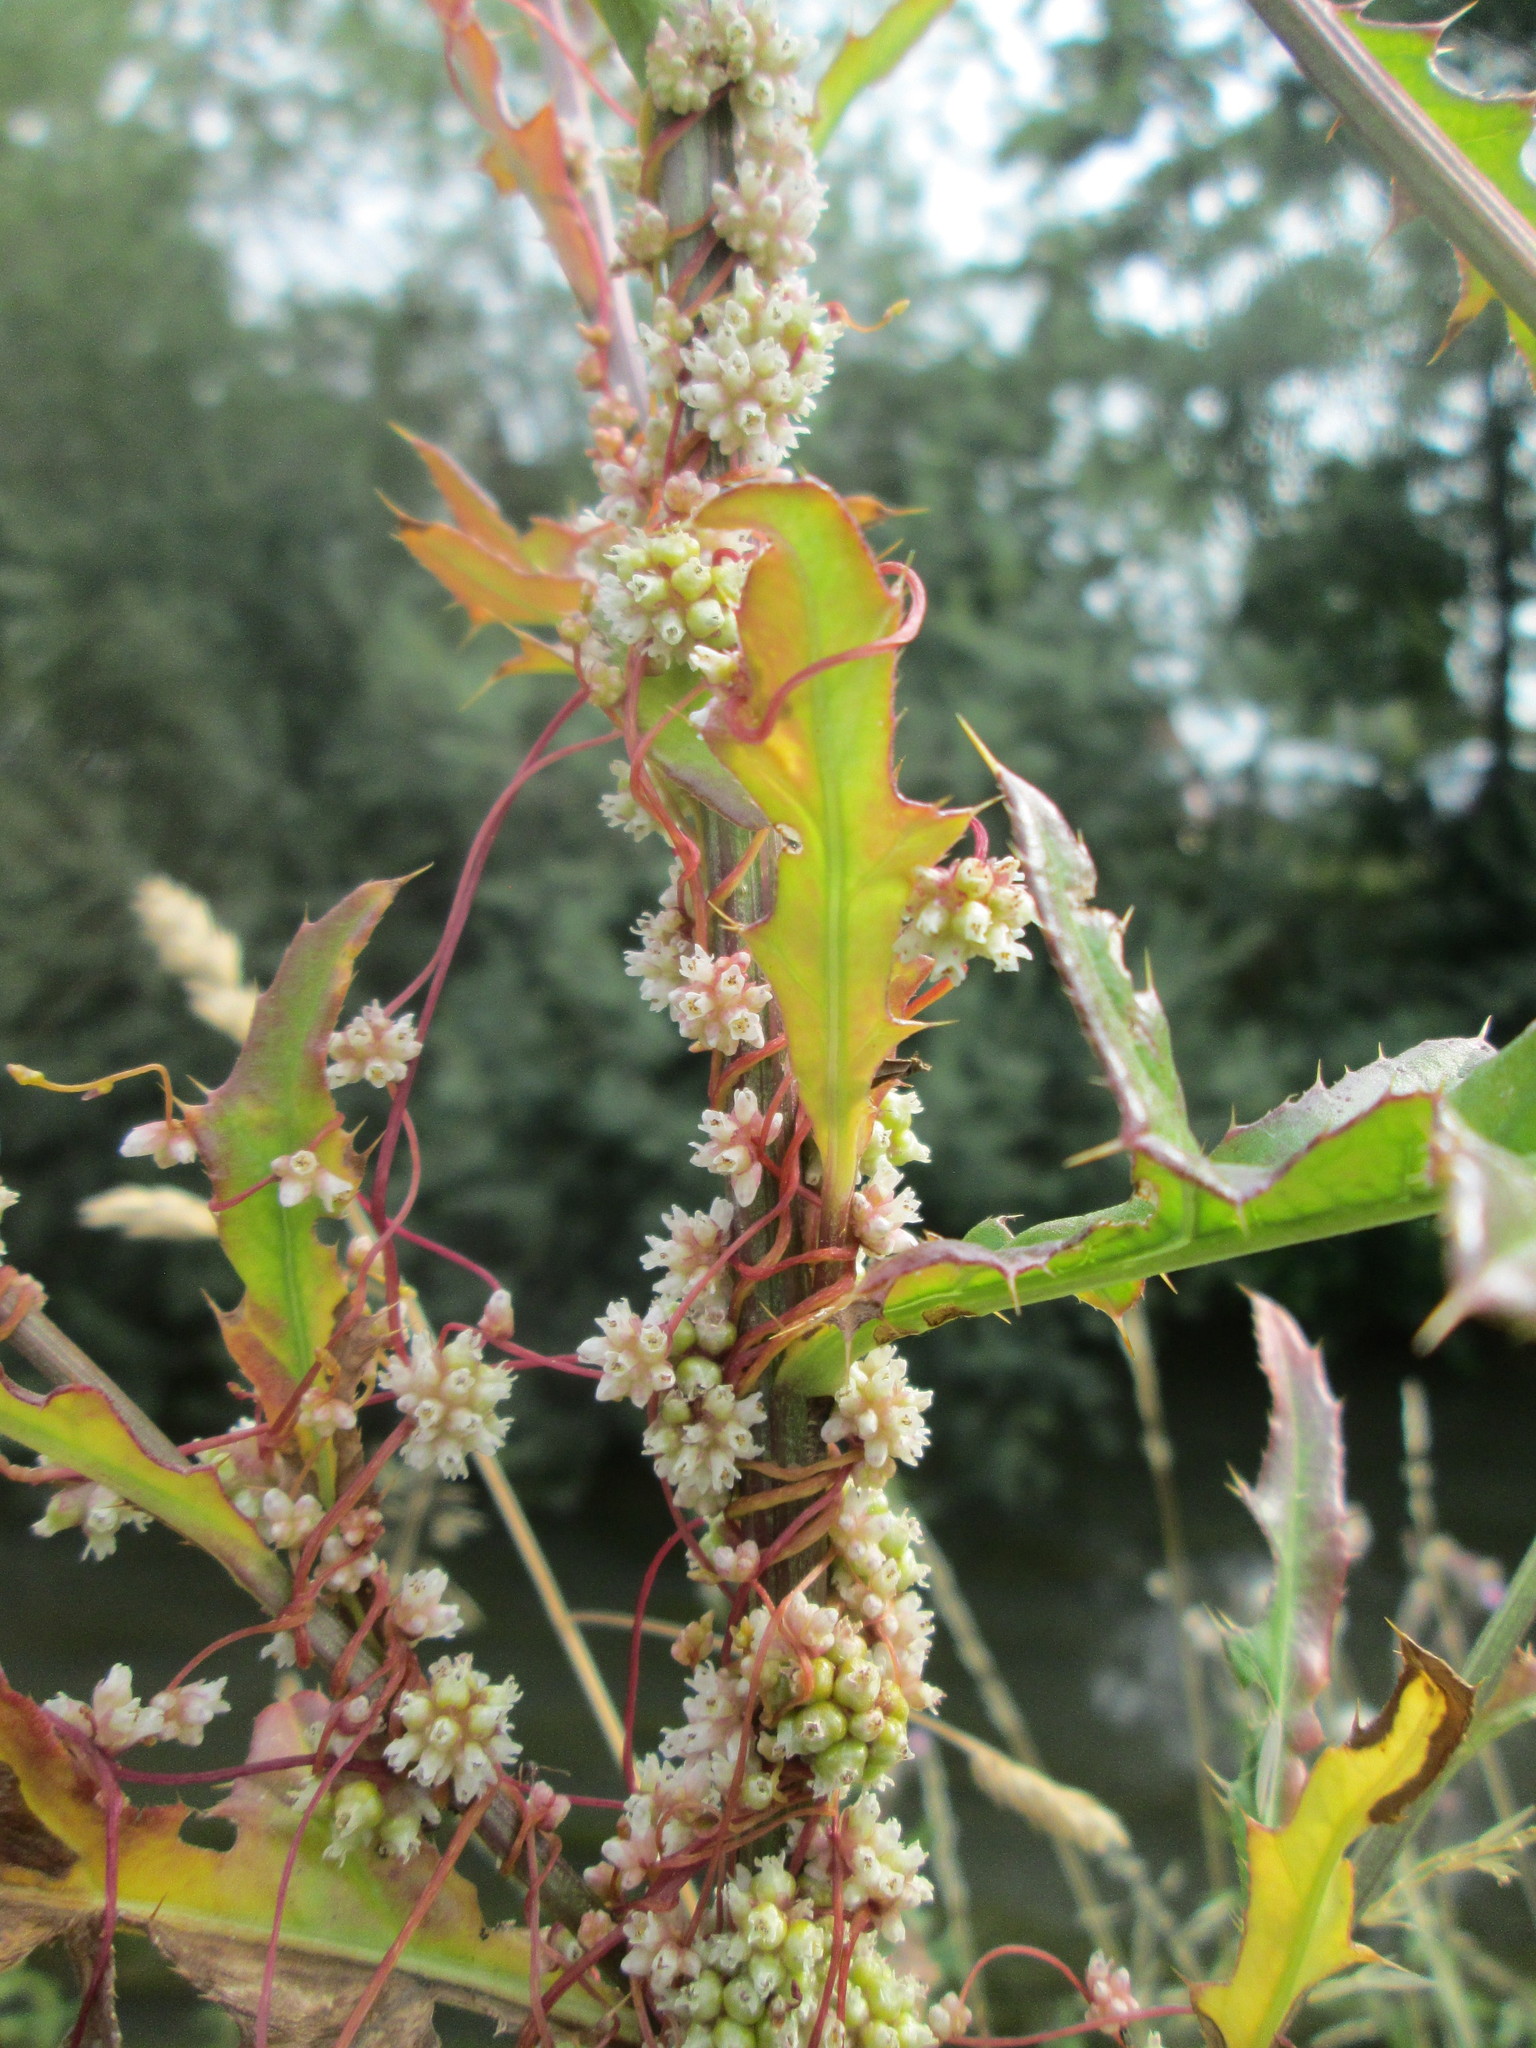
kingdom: Plantae
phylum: Tracheophyta
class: Magnoliopsida
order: Solanales
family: Convolvulaceae
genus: Cuscuta
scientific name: Cuscuta europaea
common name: Greater dodder
